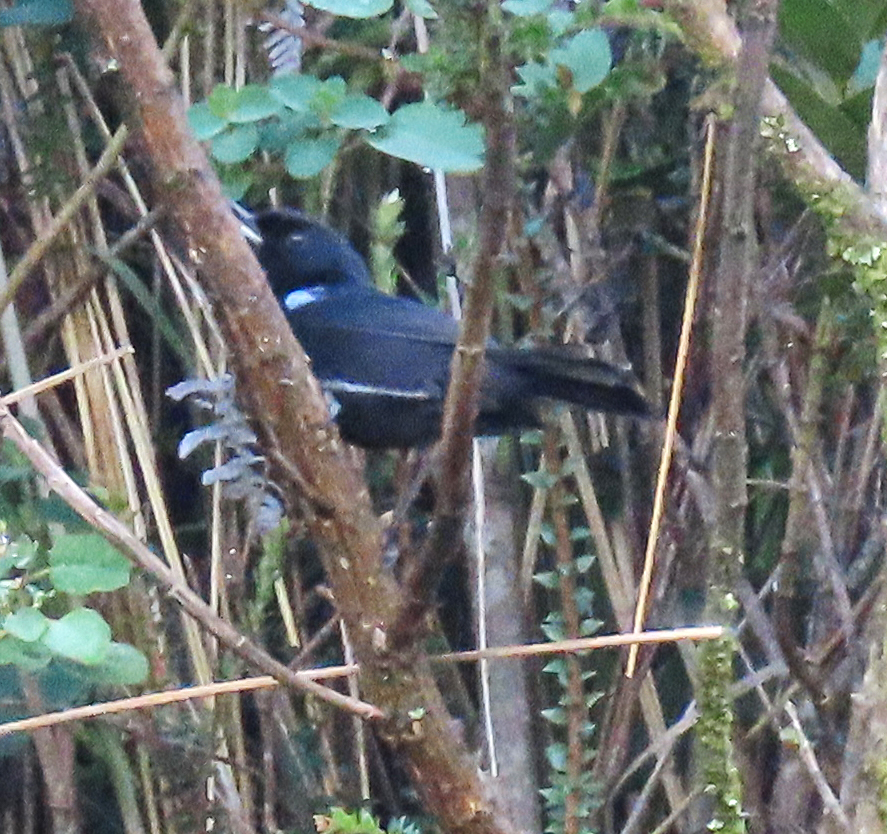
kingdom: Animalia
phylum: Chordata
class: Aves
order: Passeriformes
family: Thraupidae
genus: Diglossa
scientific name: Diglossa humeralis
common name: Black flowerpiercer
